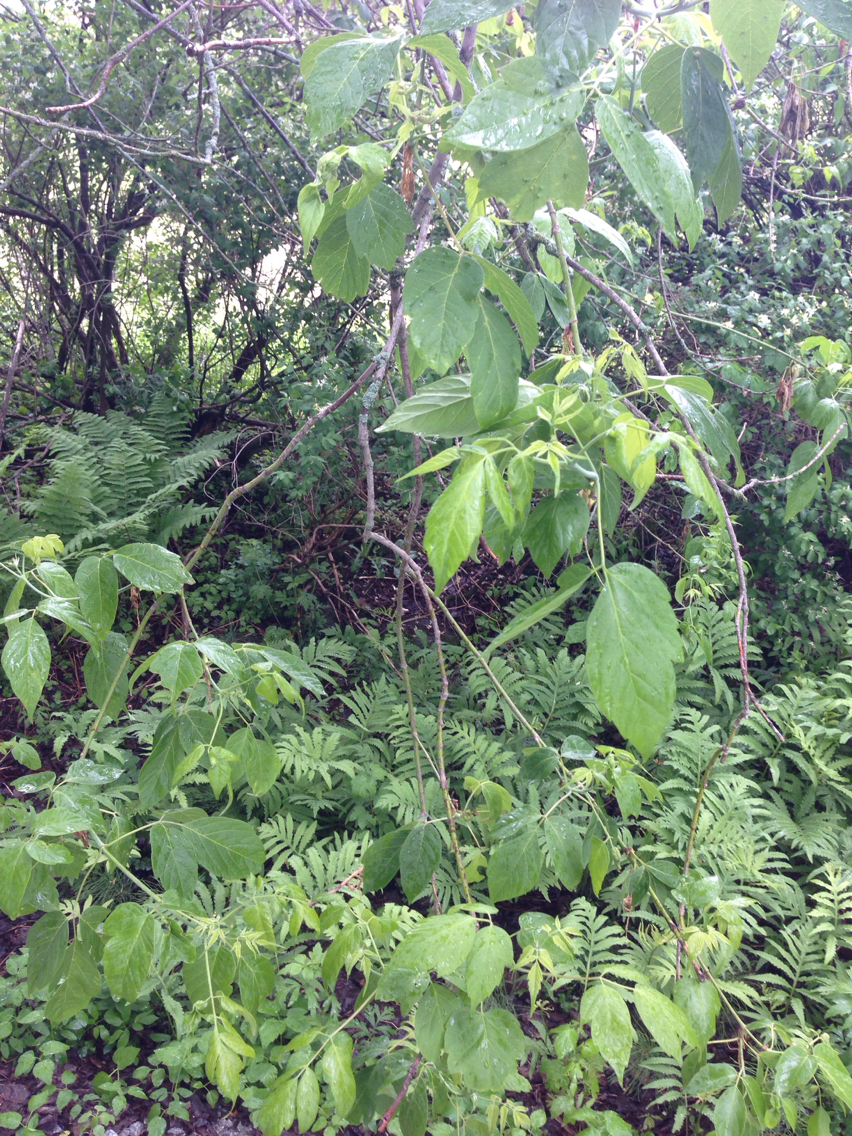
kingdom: Plantae
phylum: Tracheophyta
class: Magnoliopsida
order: Sapindales
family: Sapindaceae
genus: Acer
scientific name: Acer negundo
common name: Ashleaf maple
